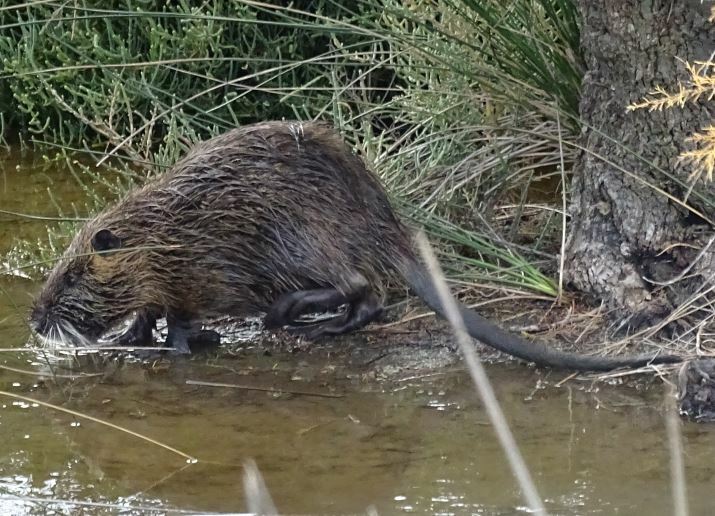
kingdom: Animalia
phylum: Chordata
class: Mammalia
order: Rodentia
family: Myocastoridae
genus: Myocastor
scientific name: Myocastor coypus
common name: Coypu
